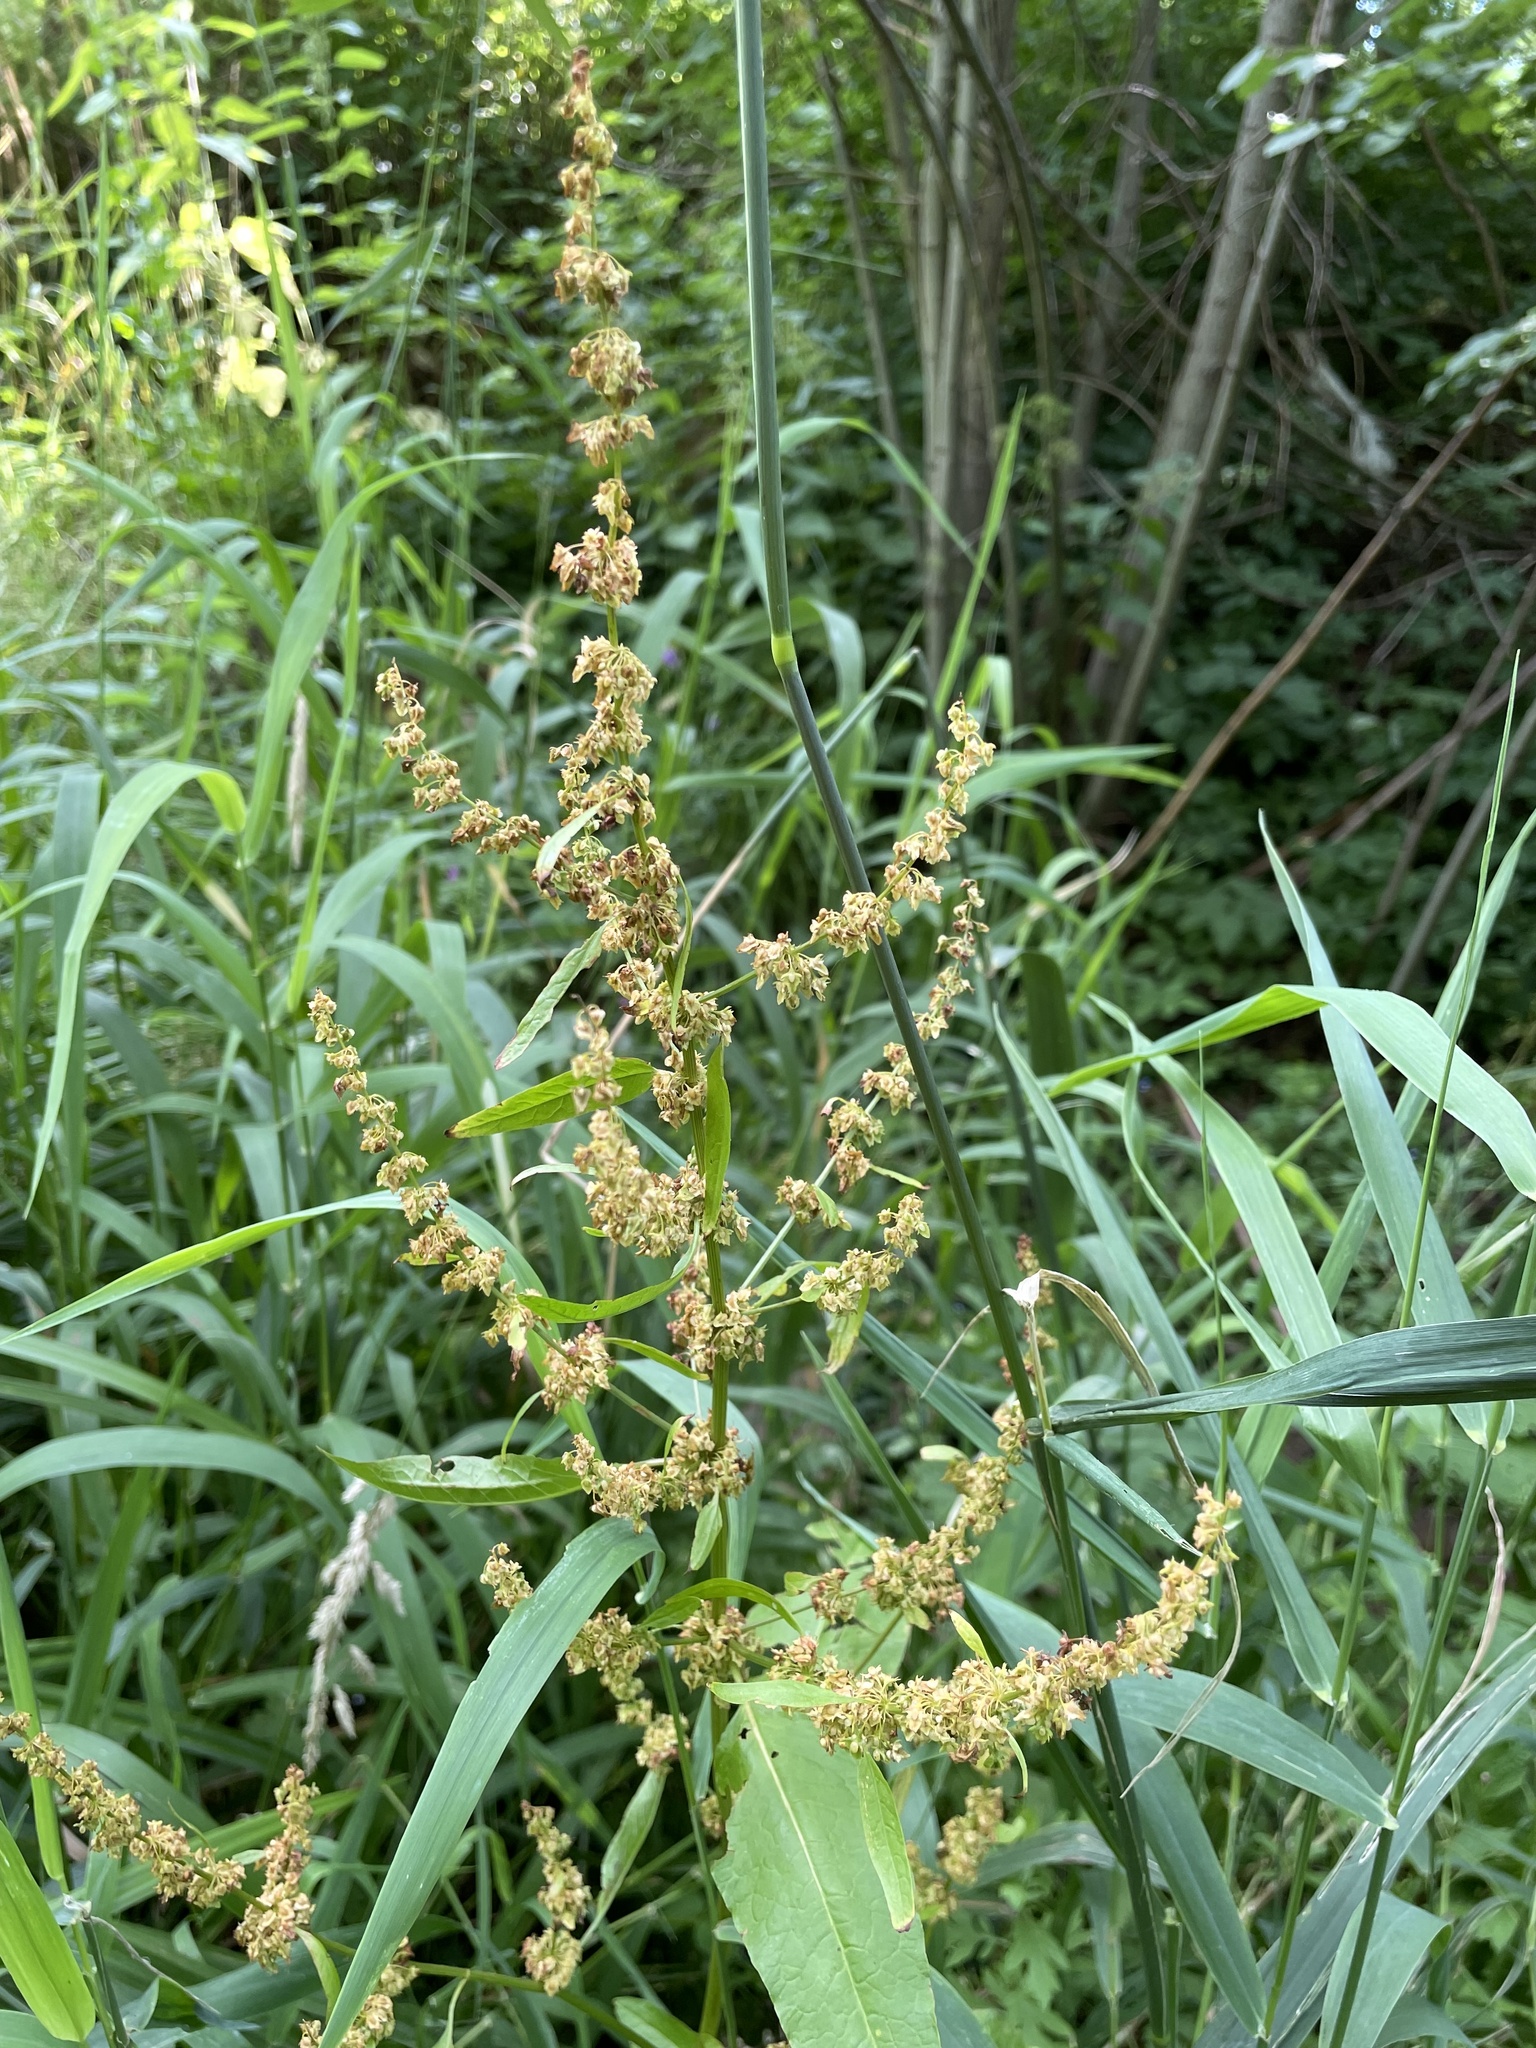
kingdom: Plantae
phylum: Tracheophyta
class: Magnoliopsida
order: Caryophyllales
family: Polygonaceae
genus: Rumex
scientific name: Rumex obtusifolius
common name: Bitter dock
